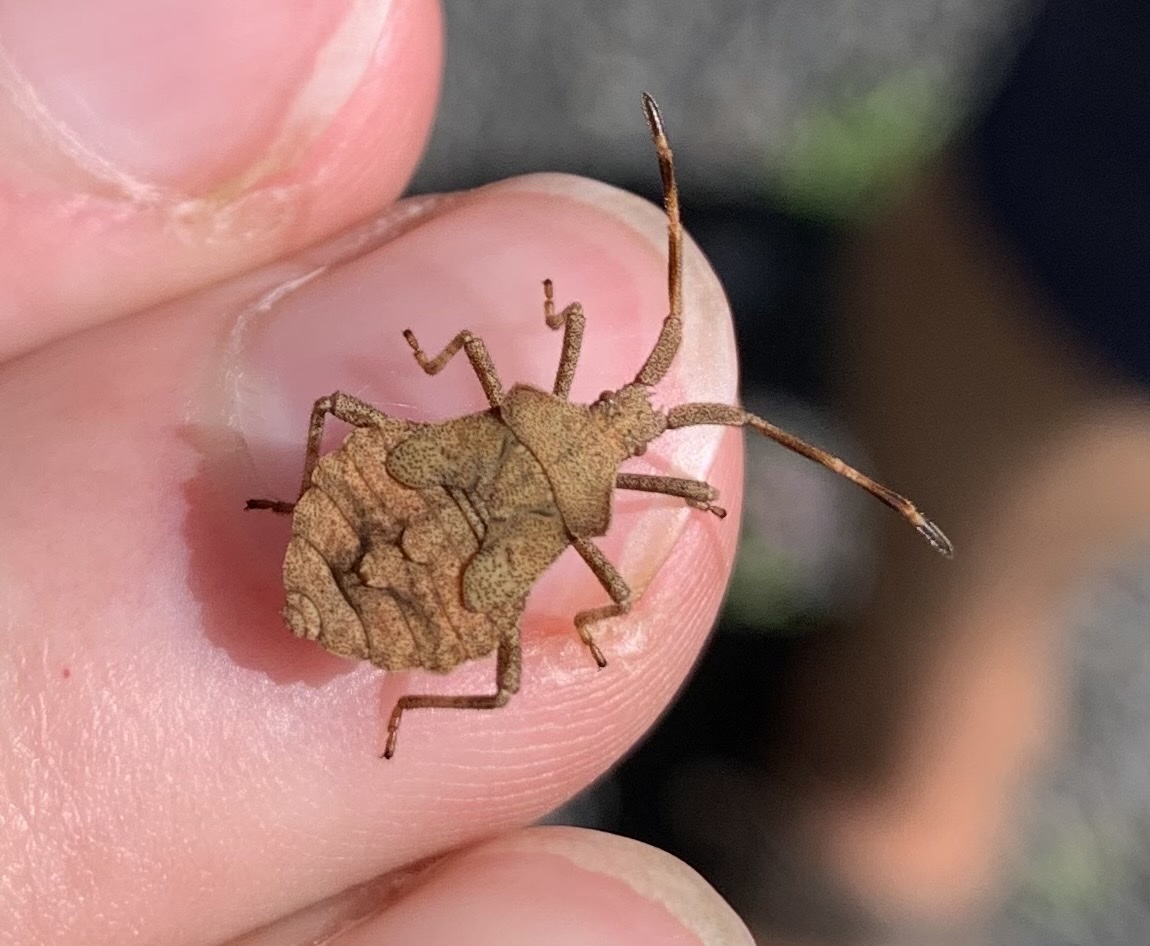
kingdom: Animalia
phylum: Arthropoda
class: Insecta
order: Hemiptera
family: Coreidae
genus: Coreus
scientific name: Coreus marginatus
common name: Dock bug
